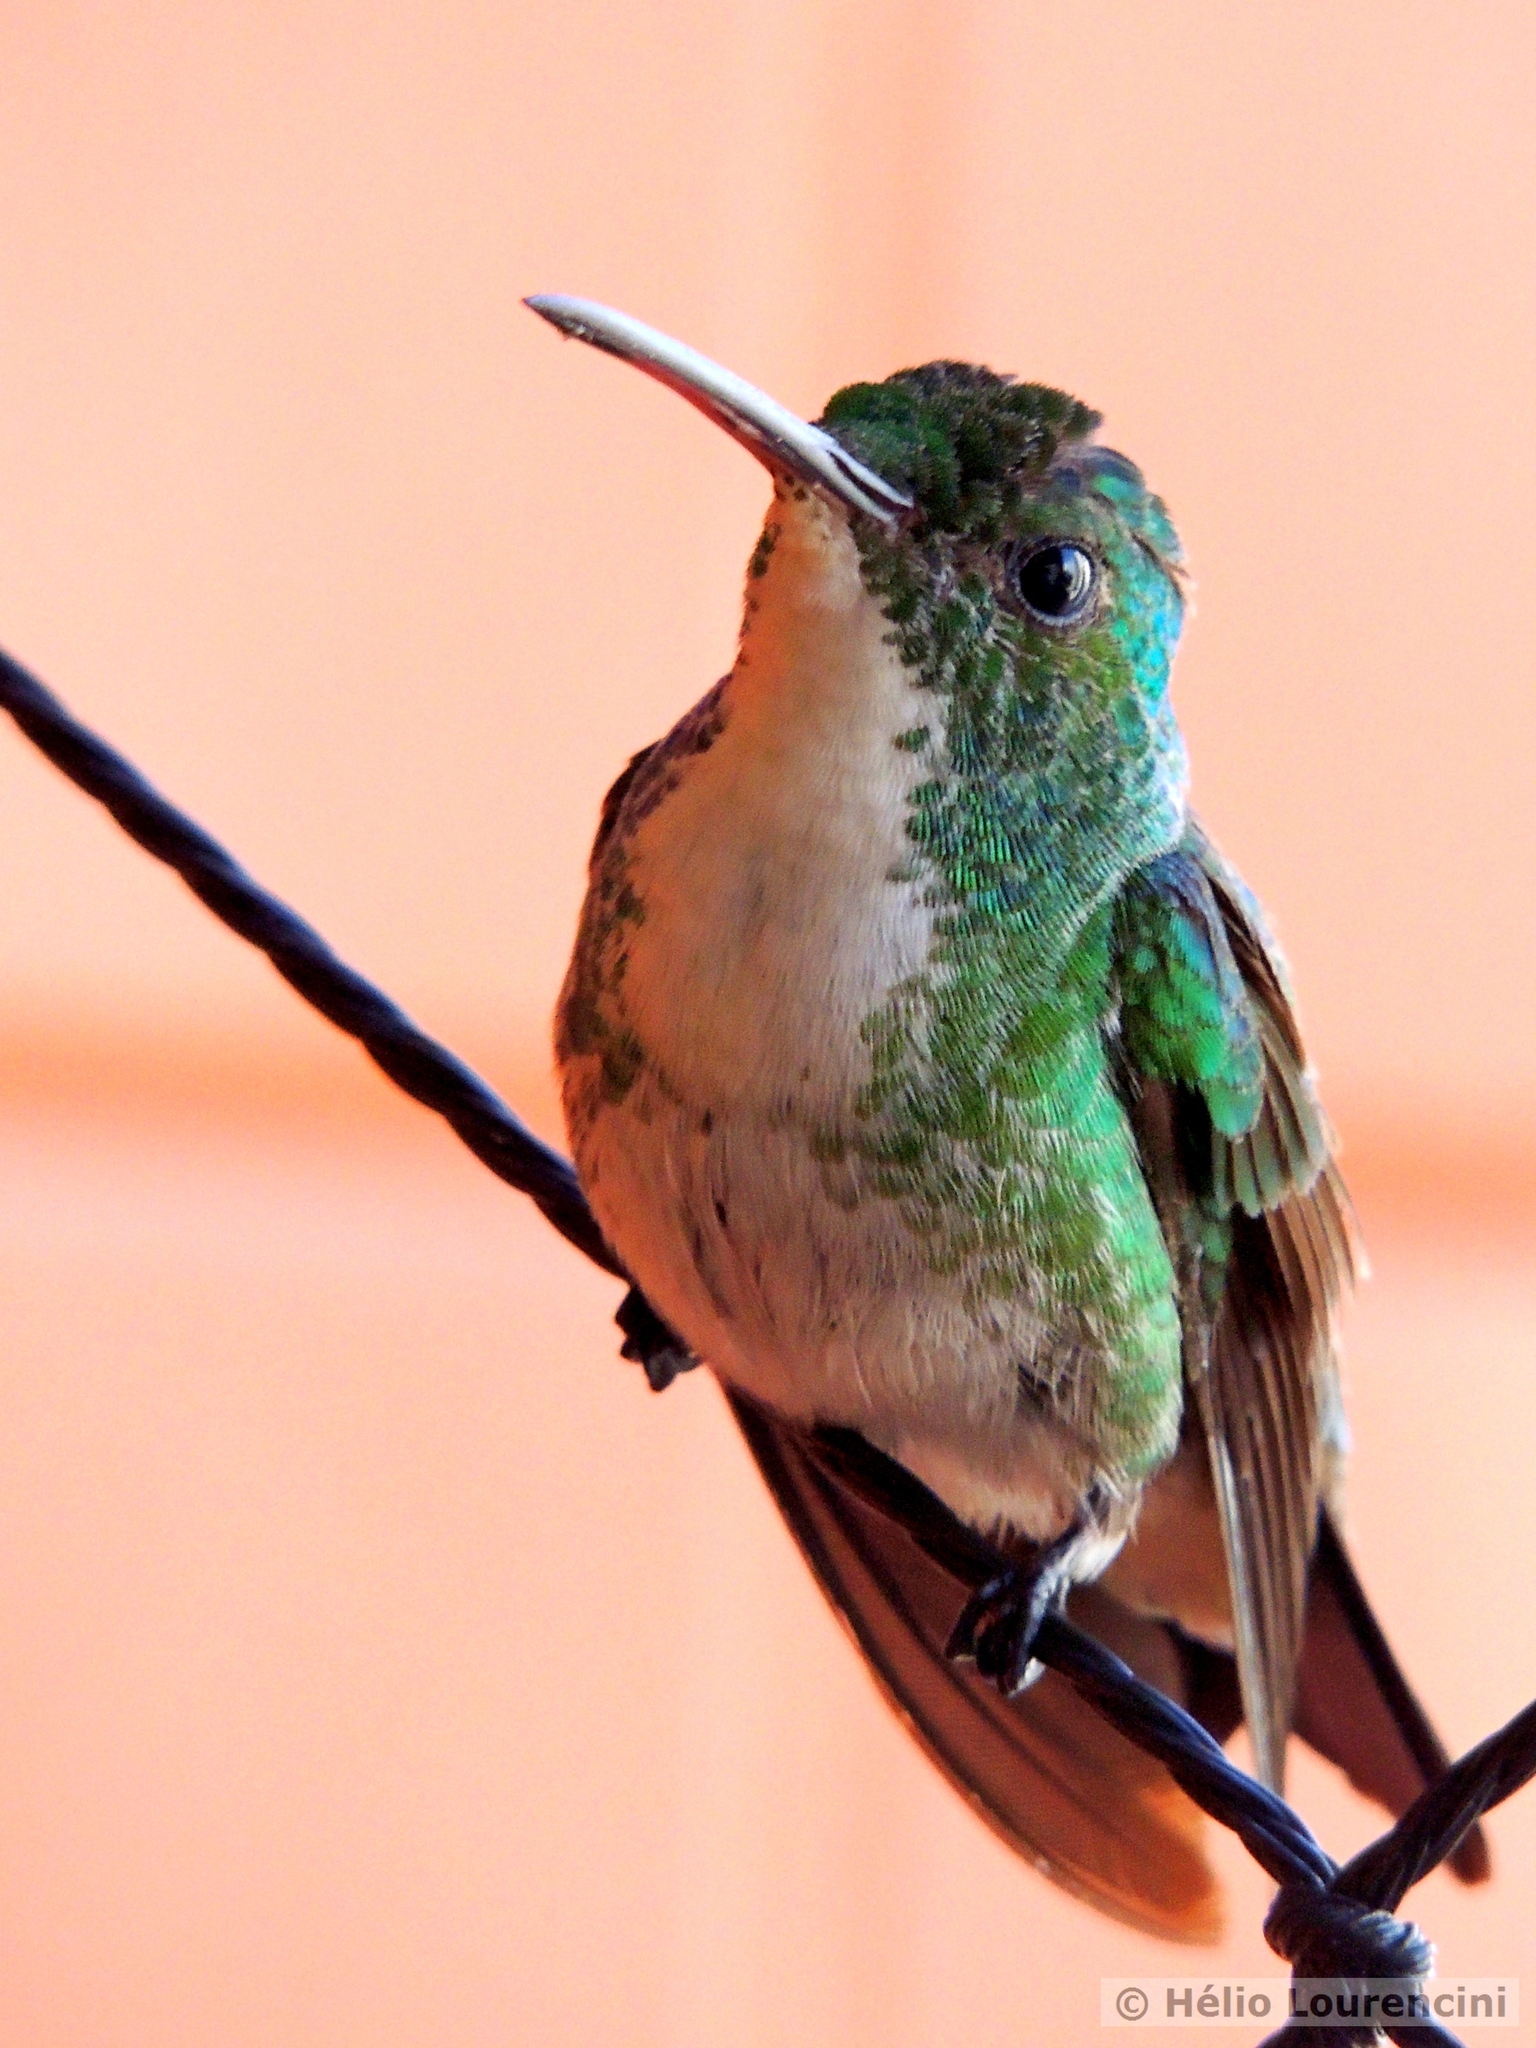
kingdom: Animalia
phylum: Chordata
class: Aves
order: Apodiformes
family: Trochilidae
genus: Chrysuronia
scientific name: Chrysuronia leucogaster
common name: Plain-bellied emerald
